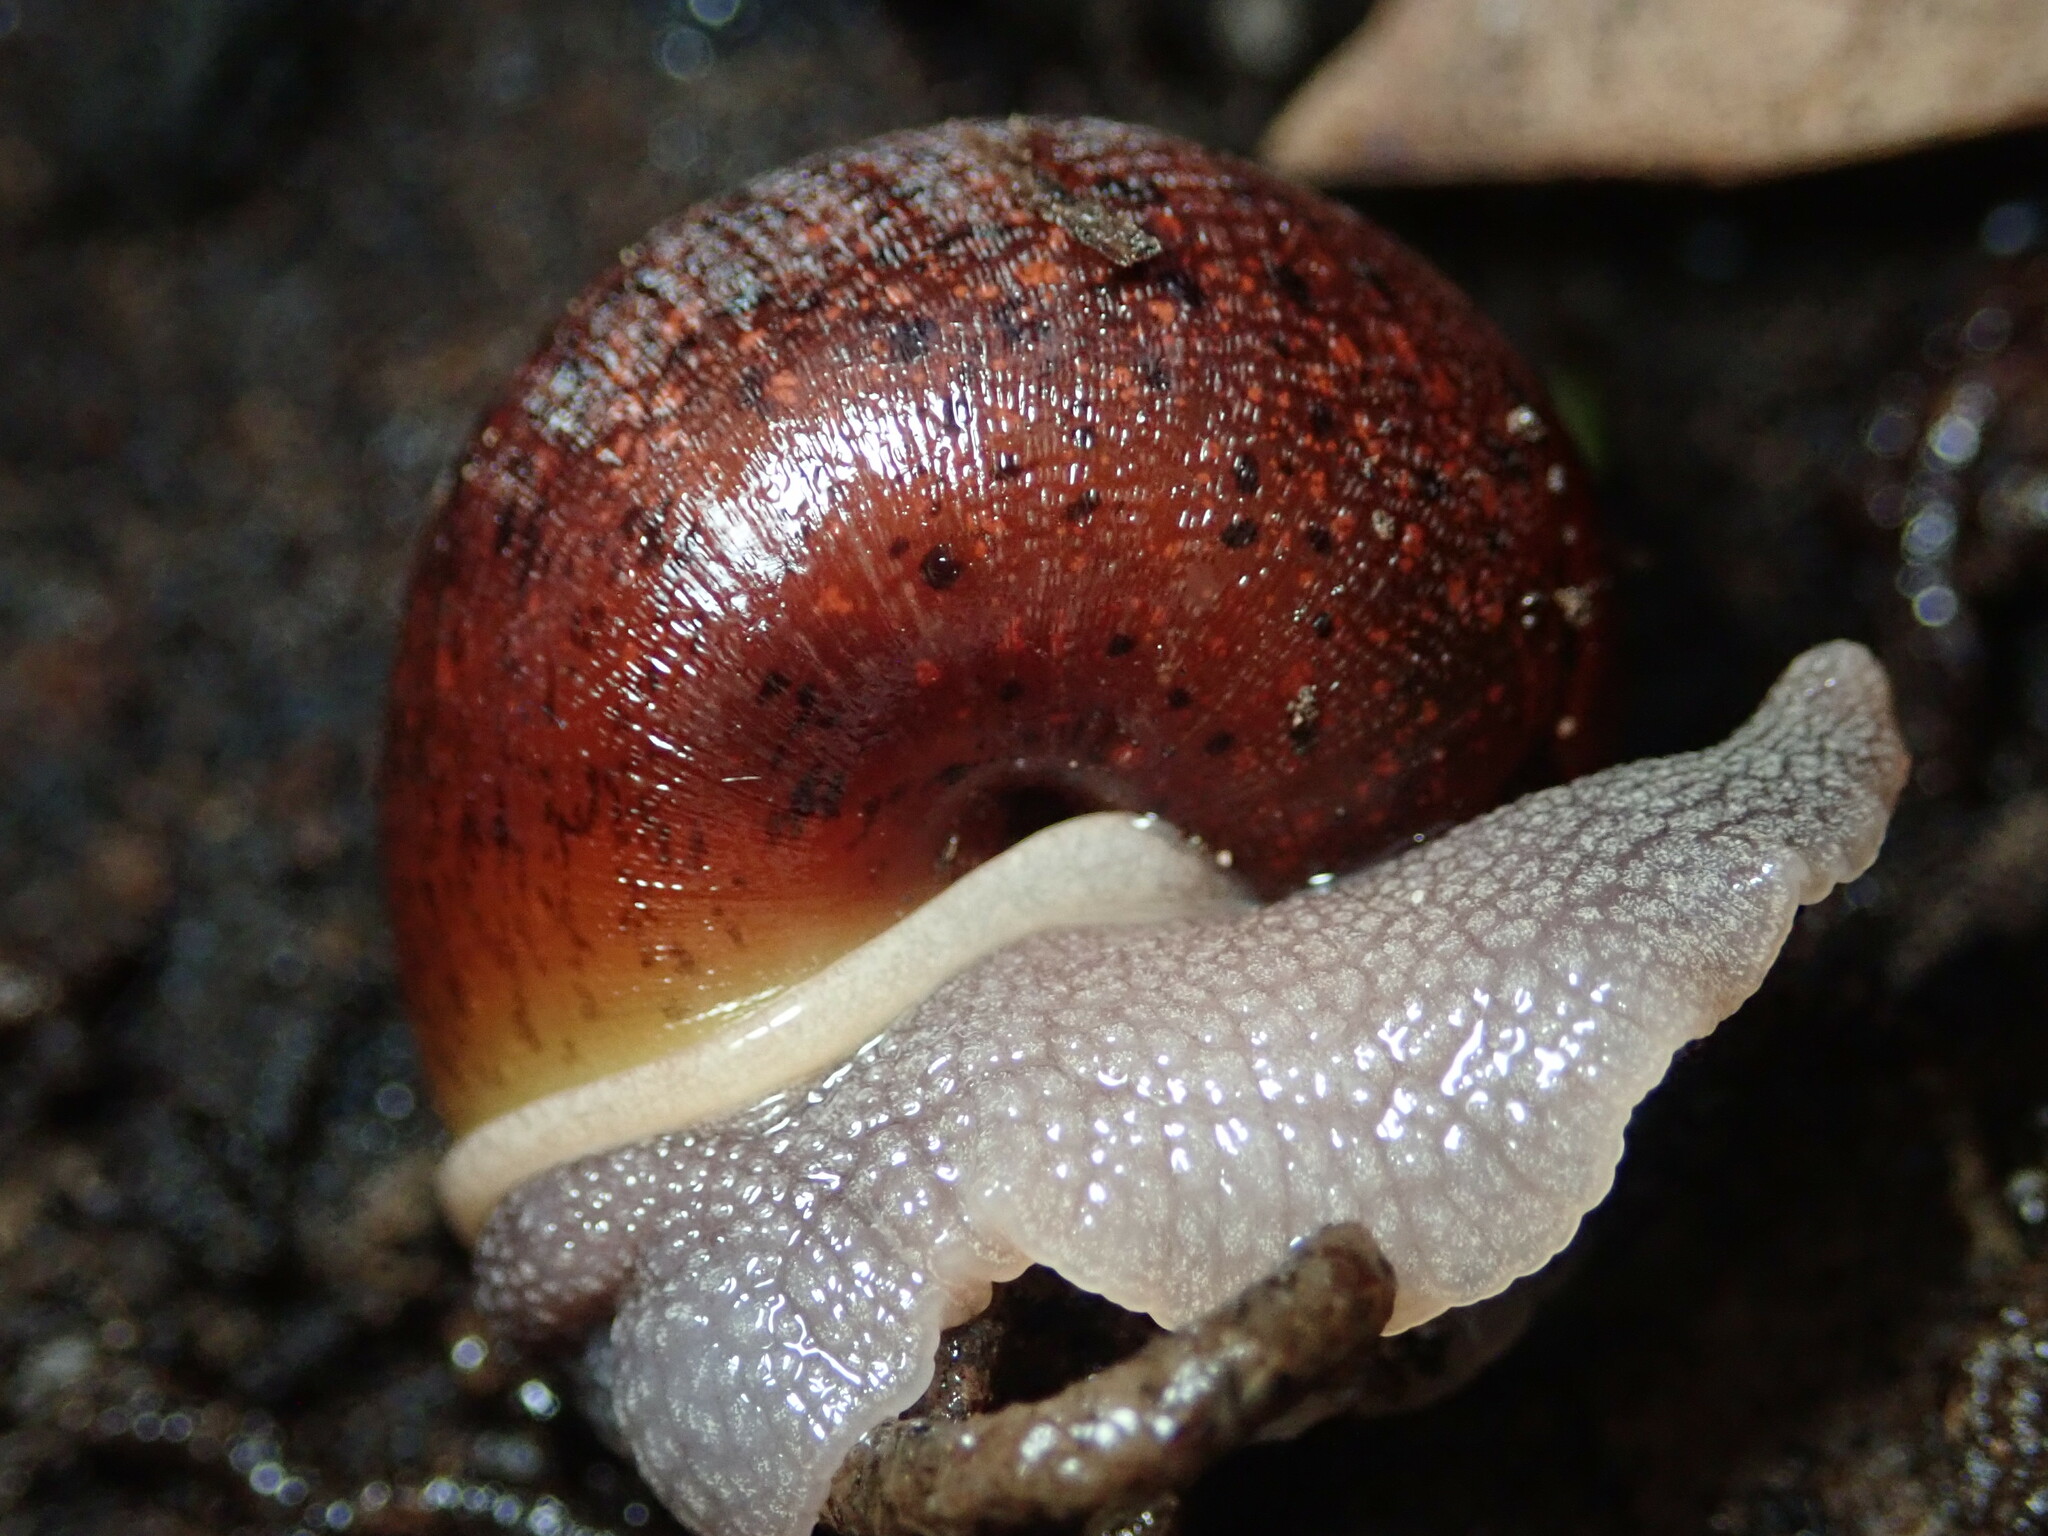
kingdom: Animalia
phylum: Mollusca
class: Gastropoda
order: Stylommatophora
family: Xanthonychidae
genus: Helminthoglypta
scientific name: Helminthoglypta nickliniana
